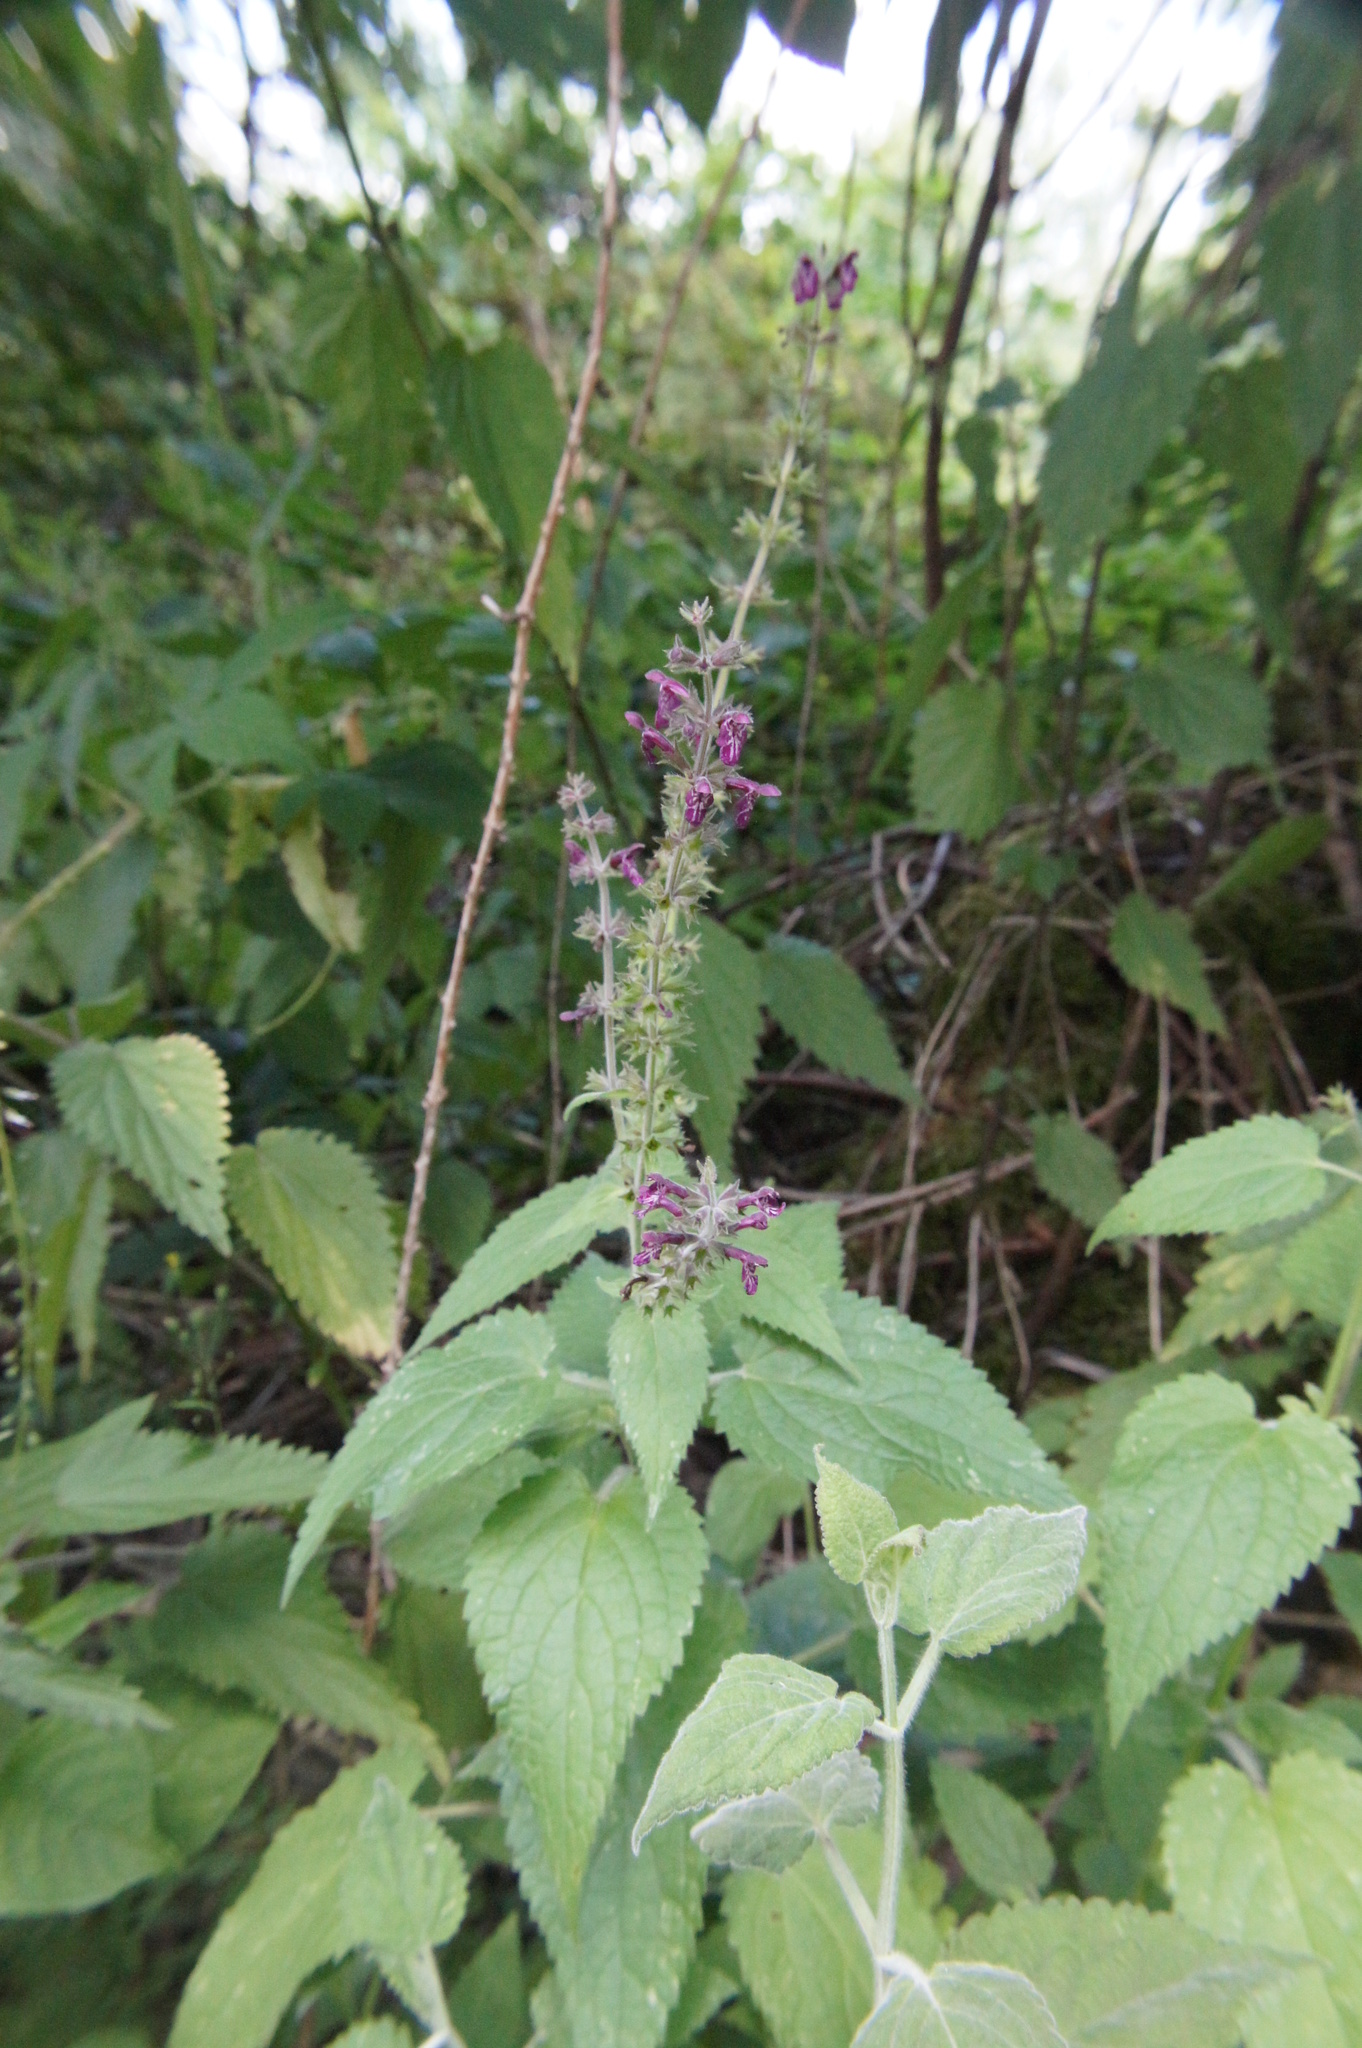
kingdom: Plantae
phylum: Tracheophyta
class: Magnoliopsida
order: Lamiales
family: Lamiaceae
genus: Stachys
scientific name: Stachys sylvatica
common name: Hedge woundwort
